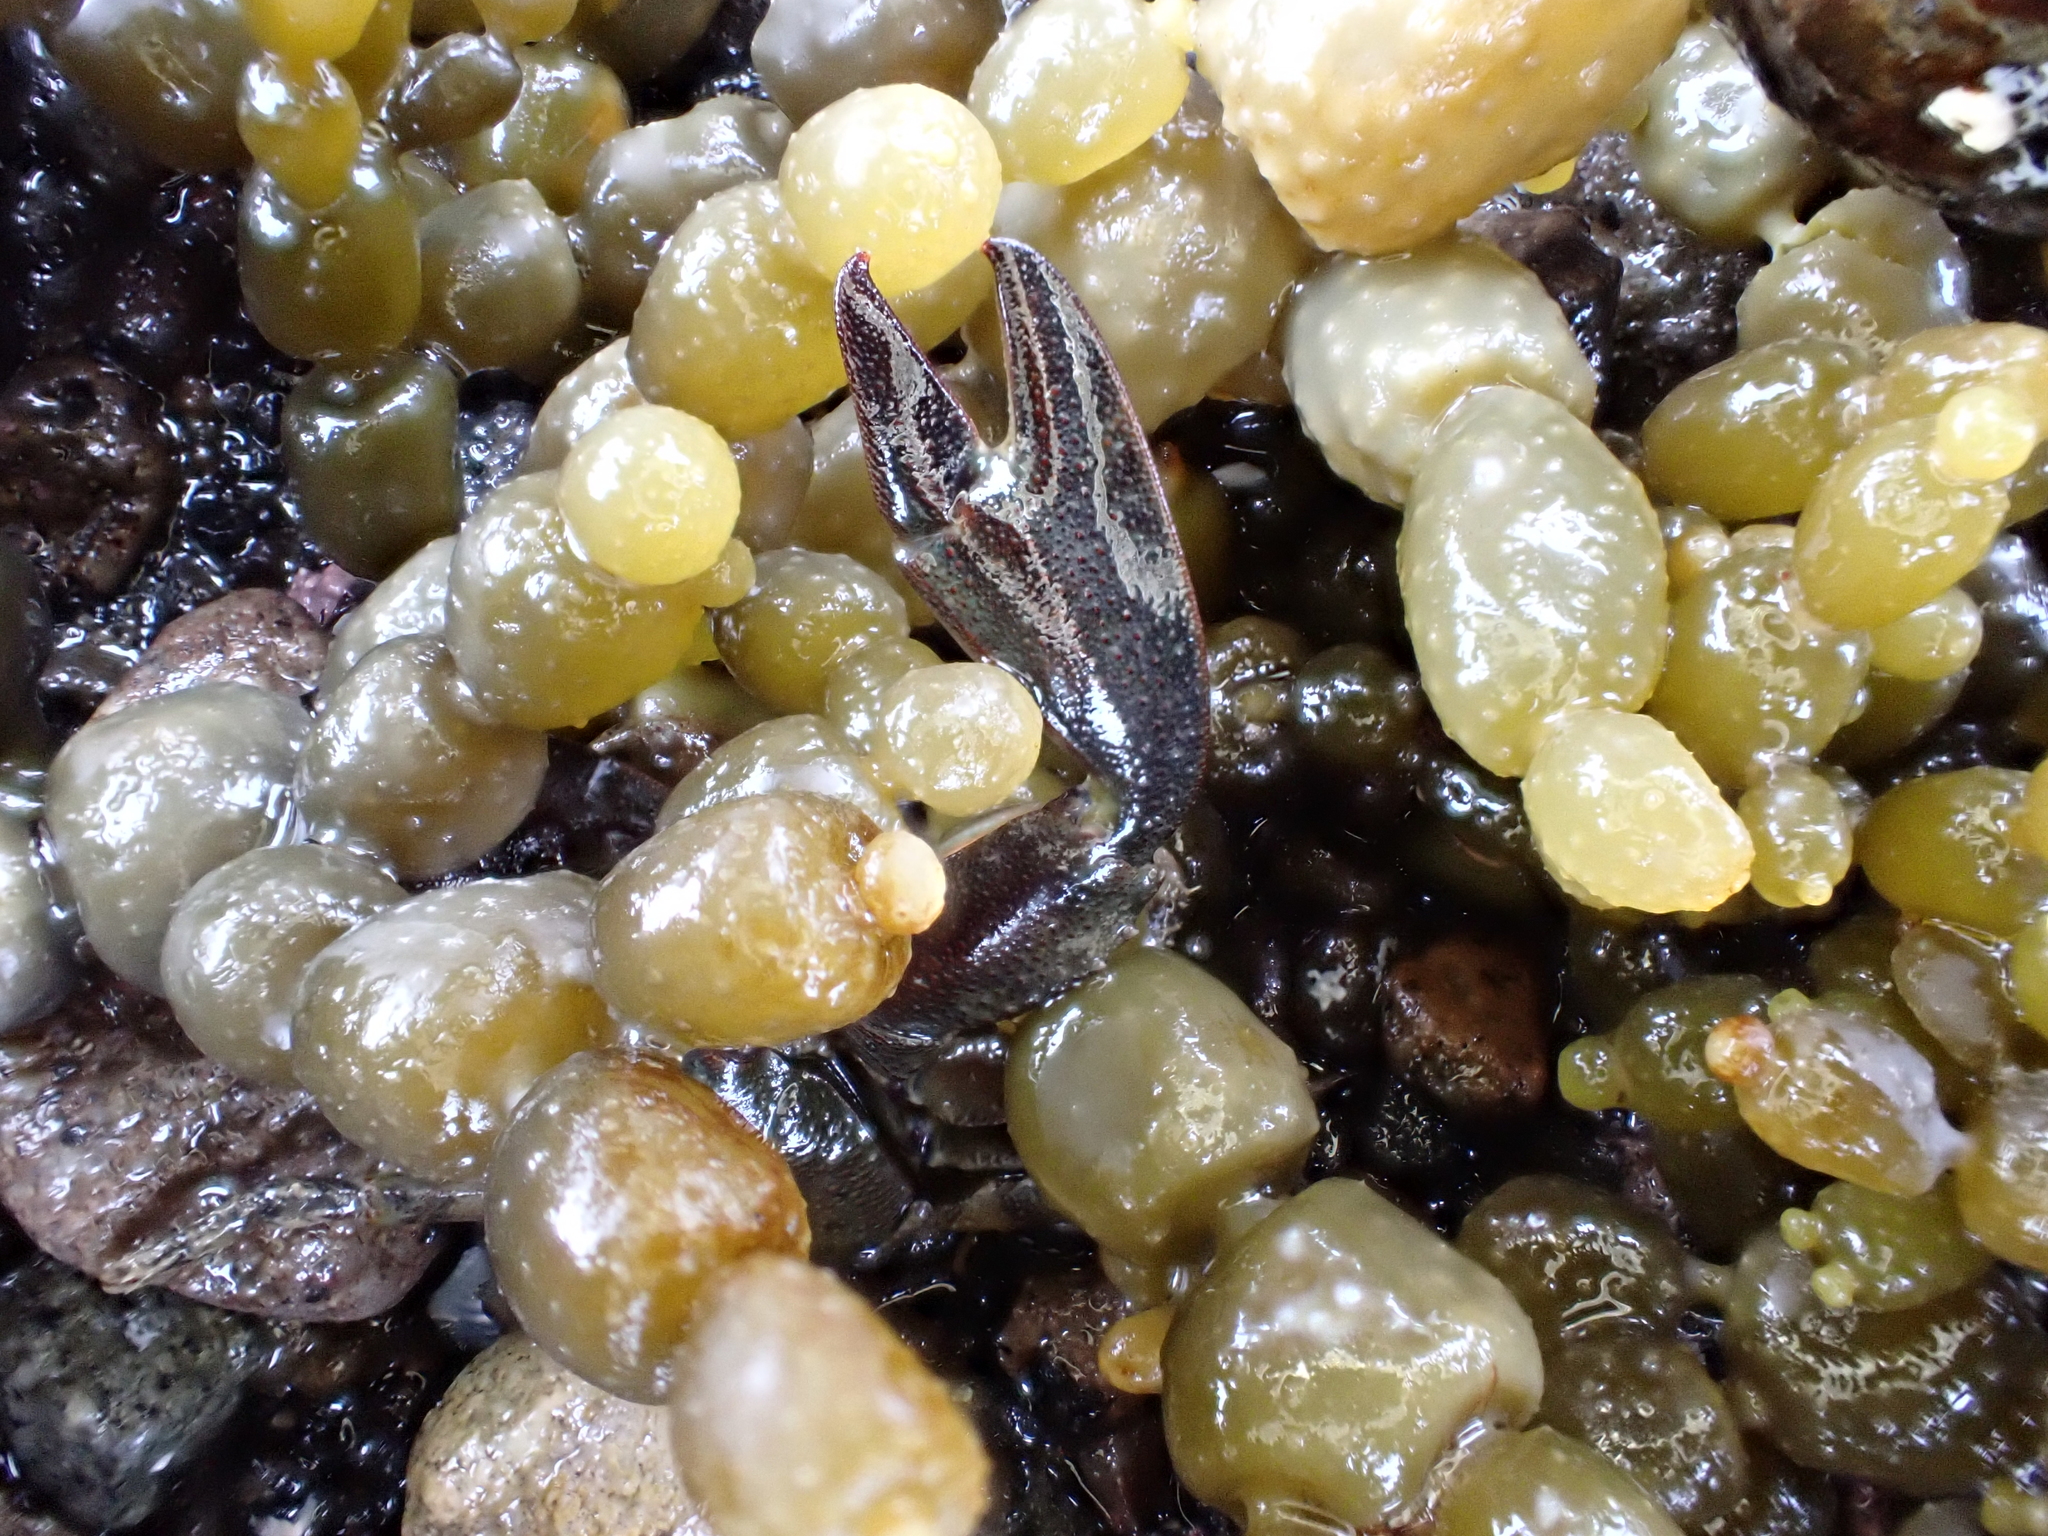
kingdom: Animalia
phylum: Arthropoda
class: Malacostraca
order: Decapoda
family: Porcellanidae
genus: Petrolisthes
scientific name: Petrolisthes elongatus
